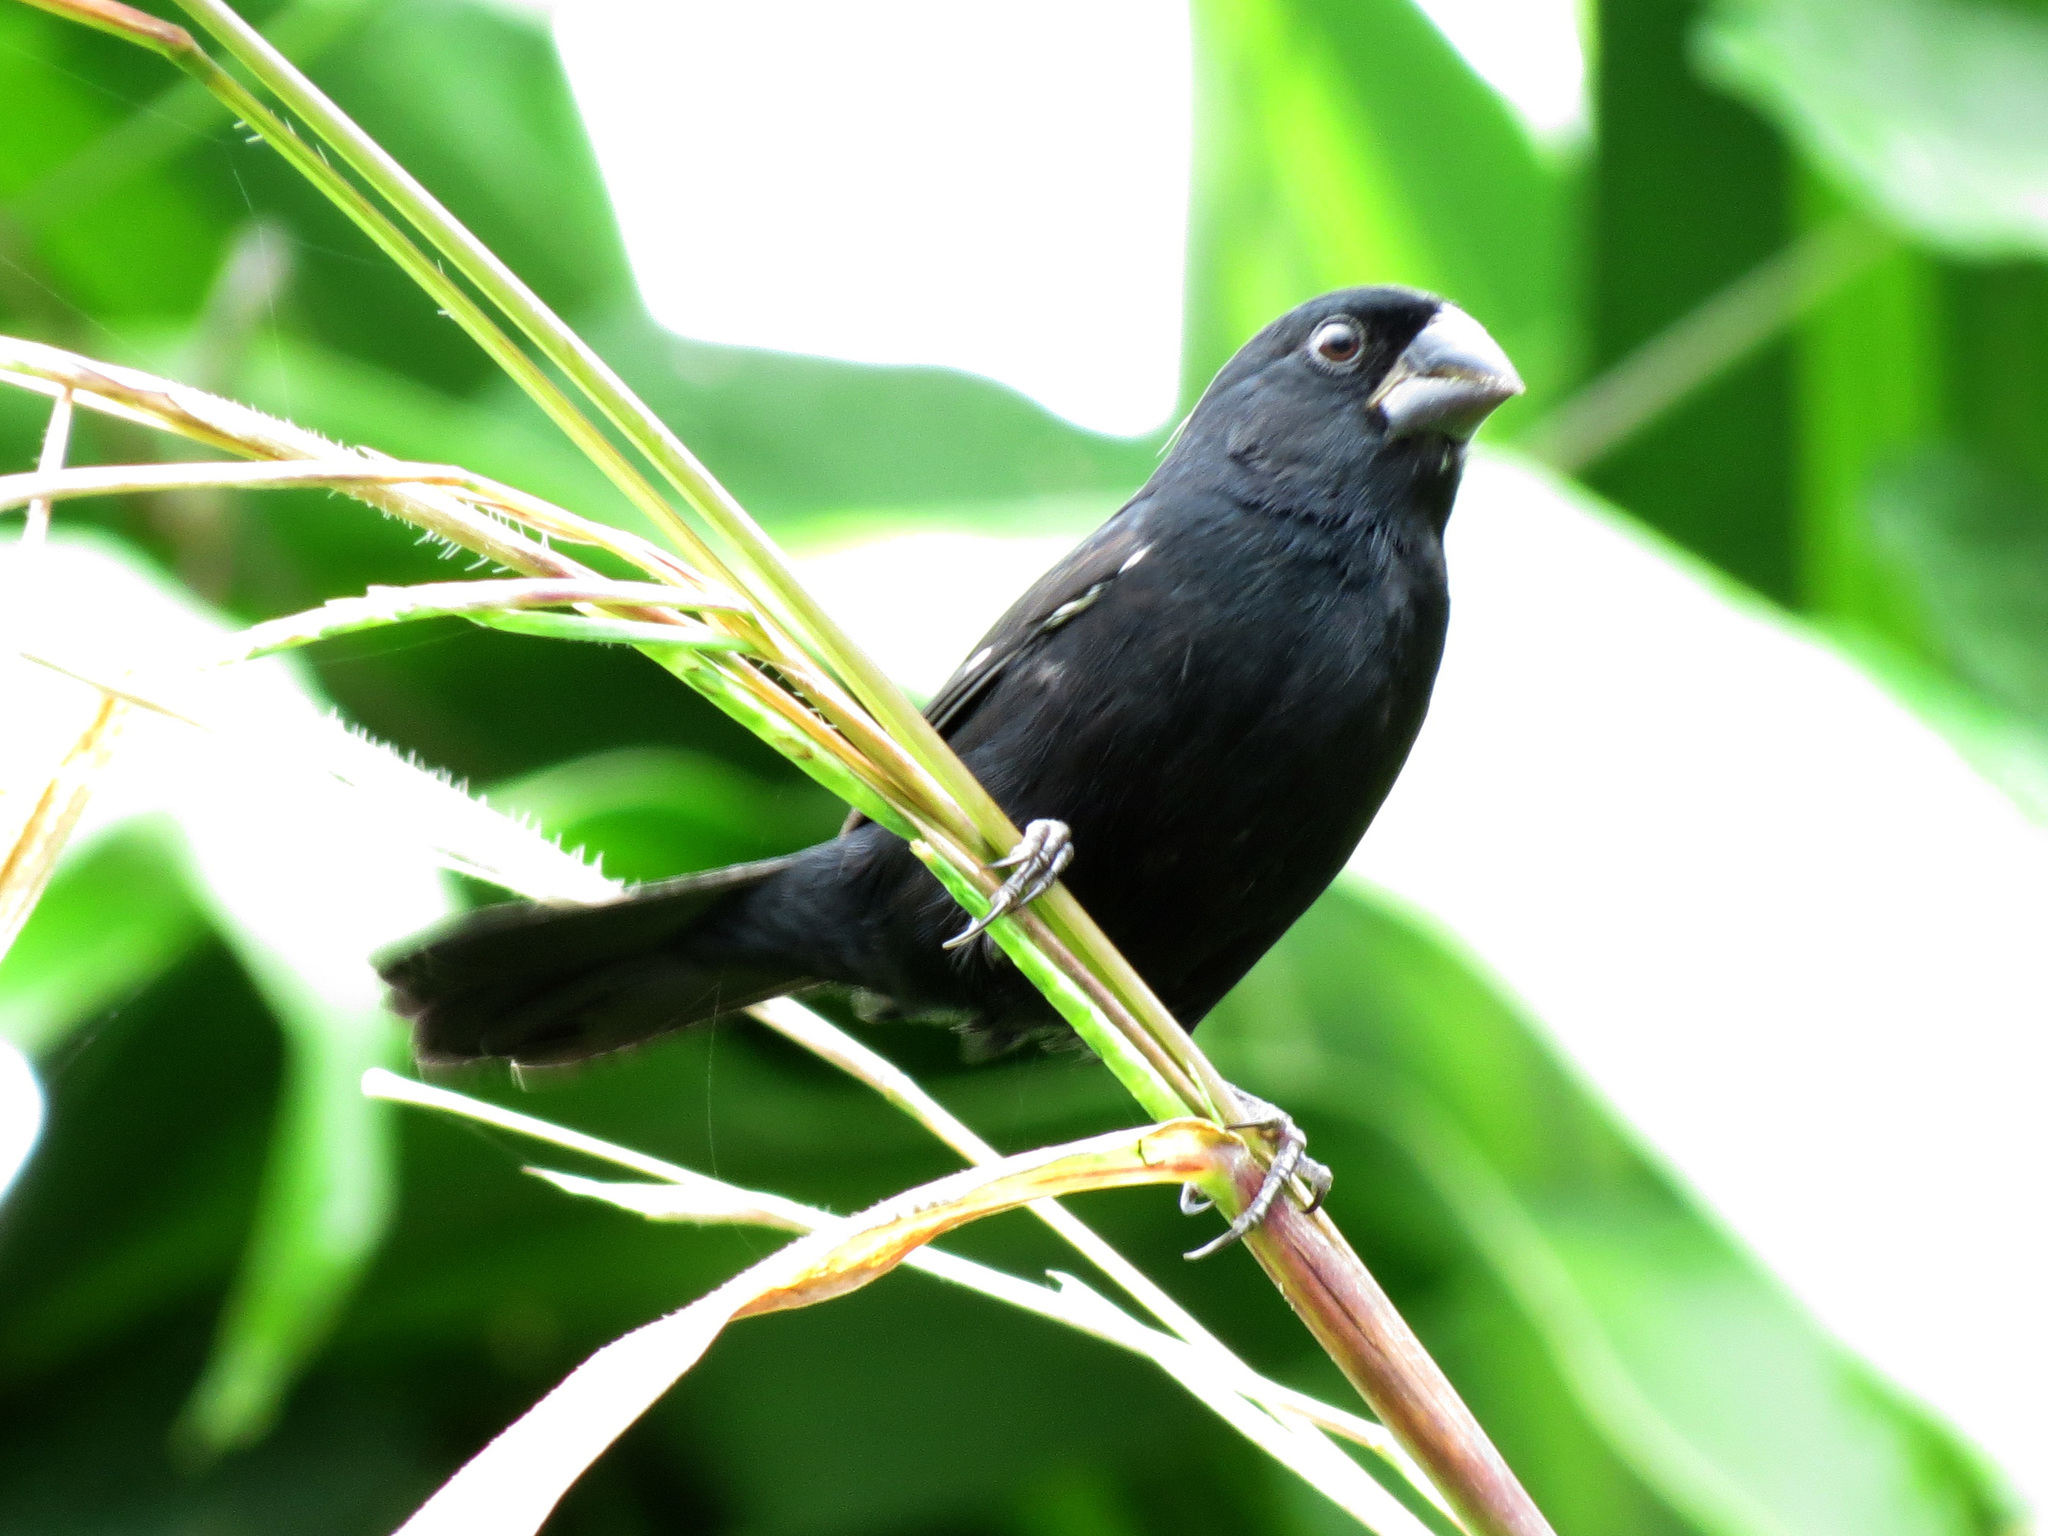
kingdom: Animalia
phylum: Chordata
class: Aves
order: Passeriformes
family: Thraupidae
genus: Sporophila
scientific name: Sporophila funerea
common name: Thick-billed seed-finch
